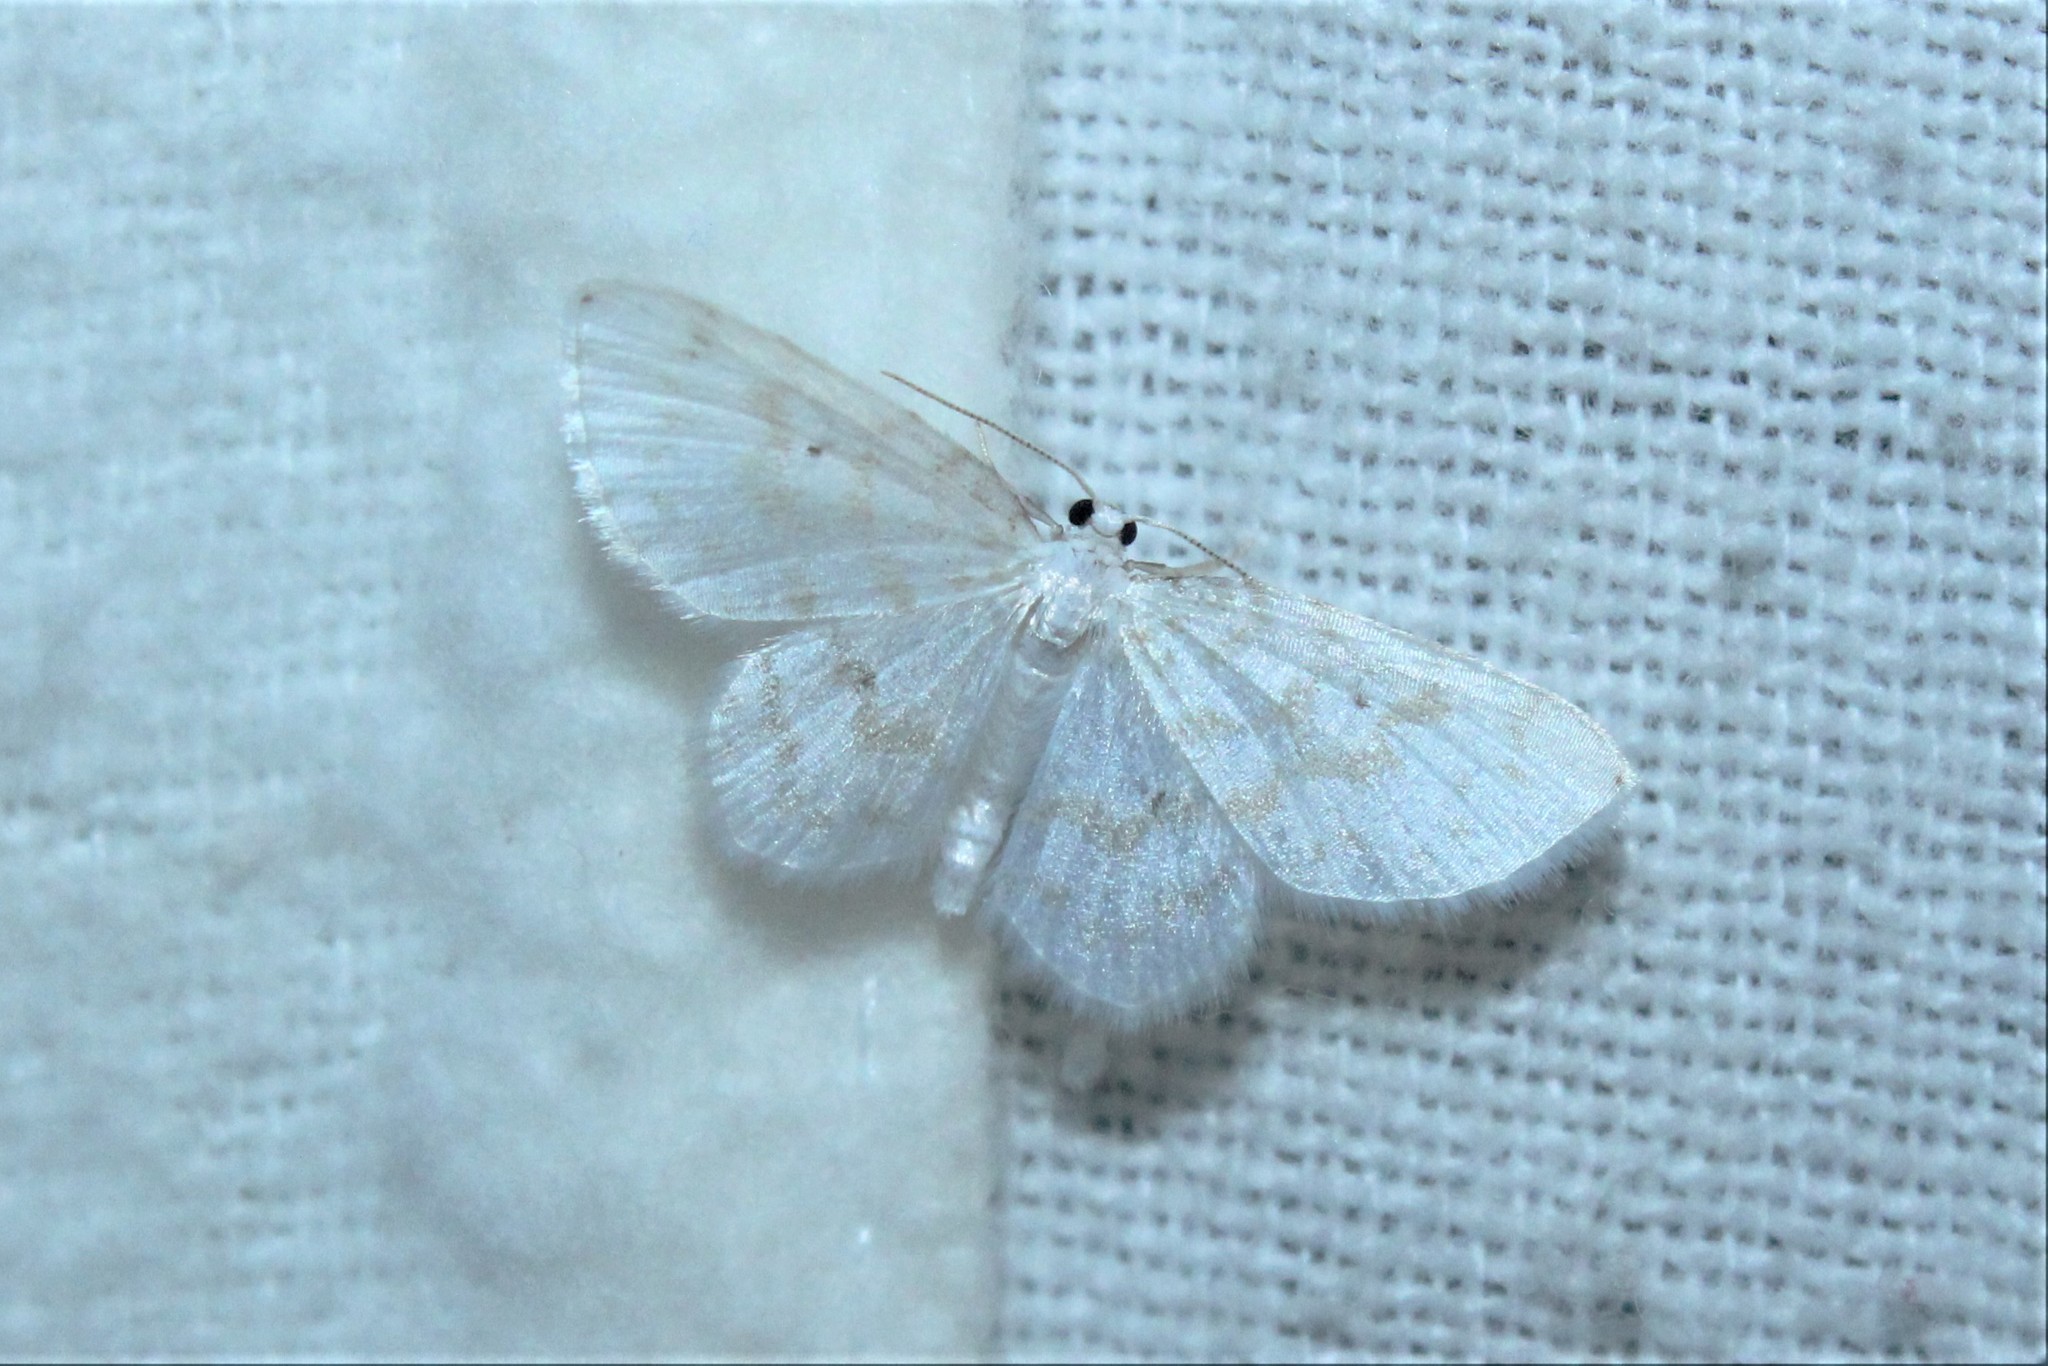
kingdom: Animalia
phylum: Arthropoda
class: Insecta
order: Lepidoptera
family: Geometridae
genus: Hydrelia
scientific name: Hydrelia albifera
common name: Fragile white carpet
